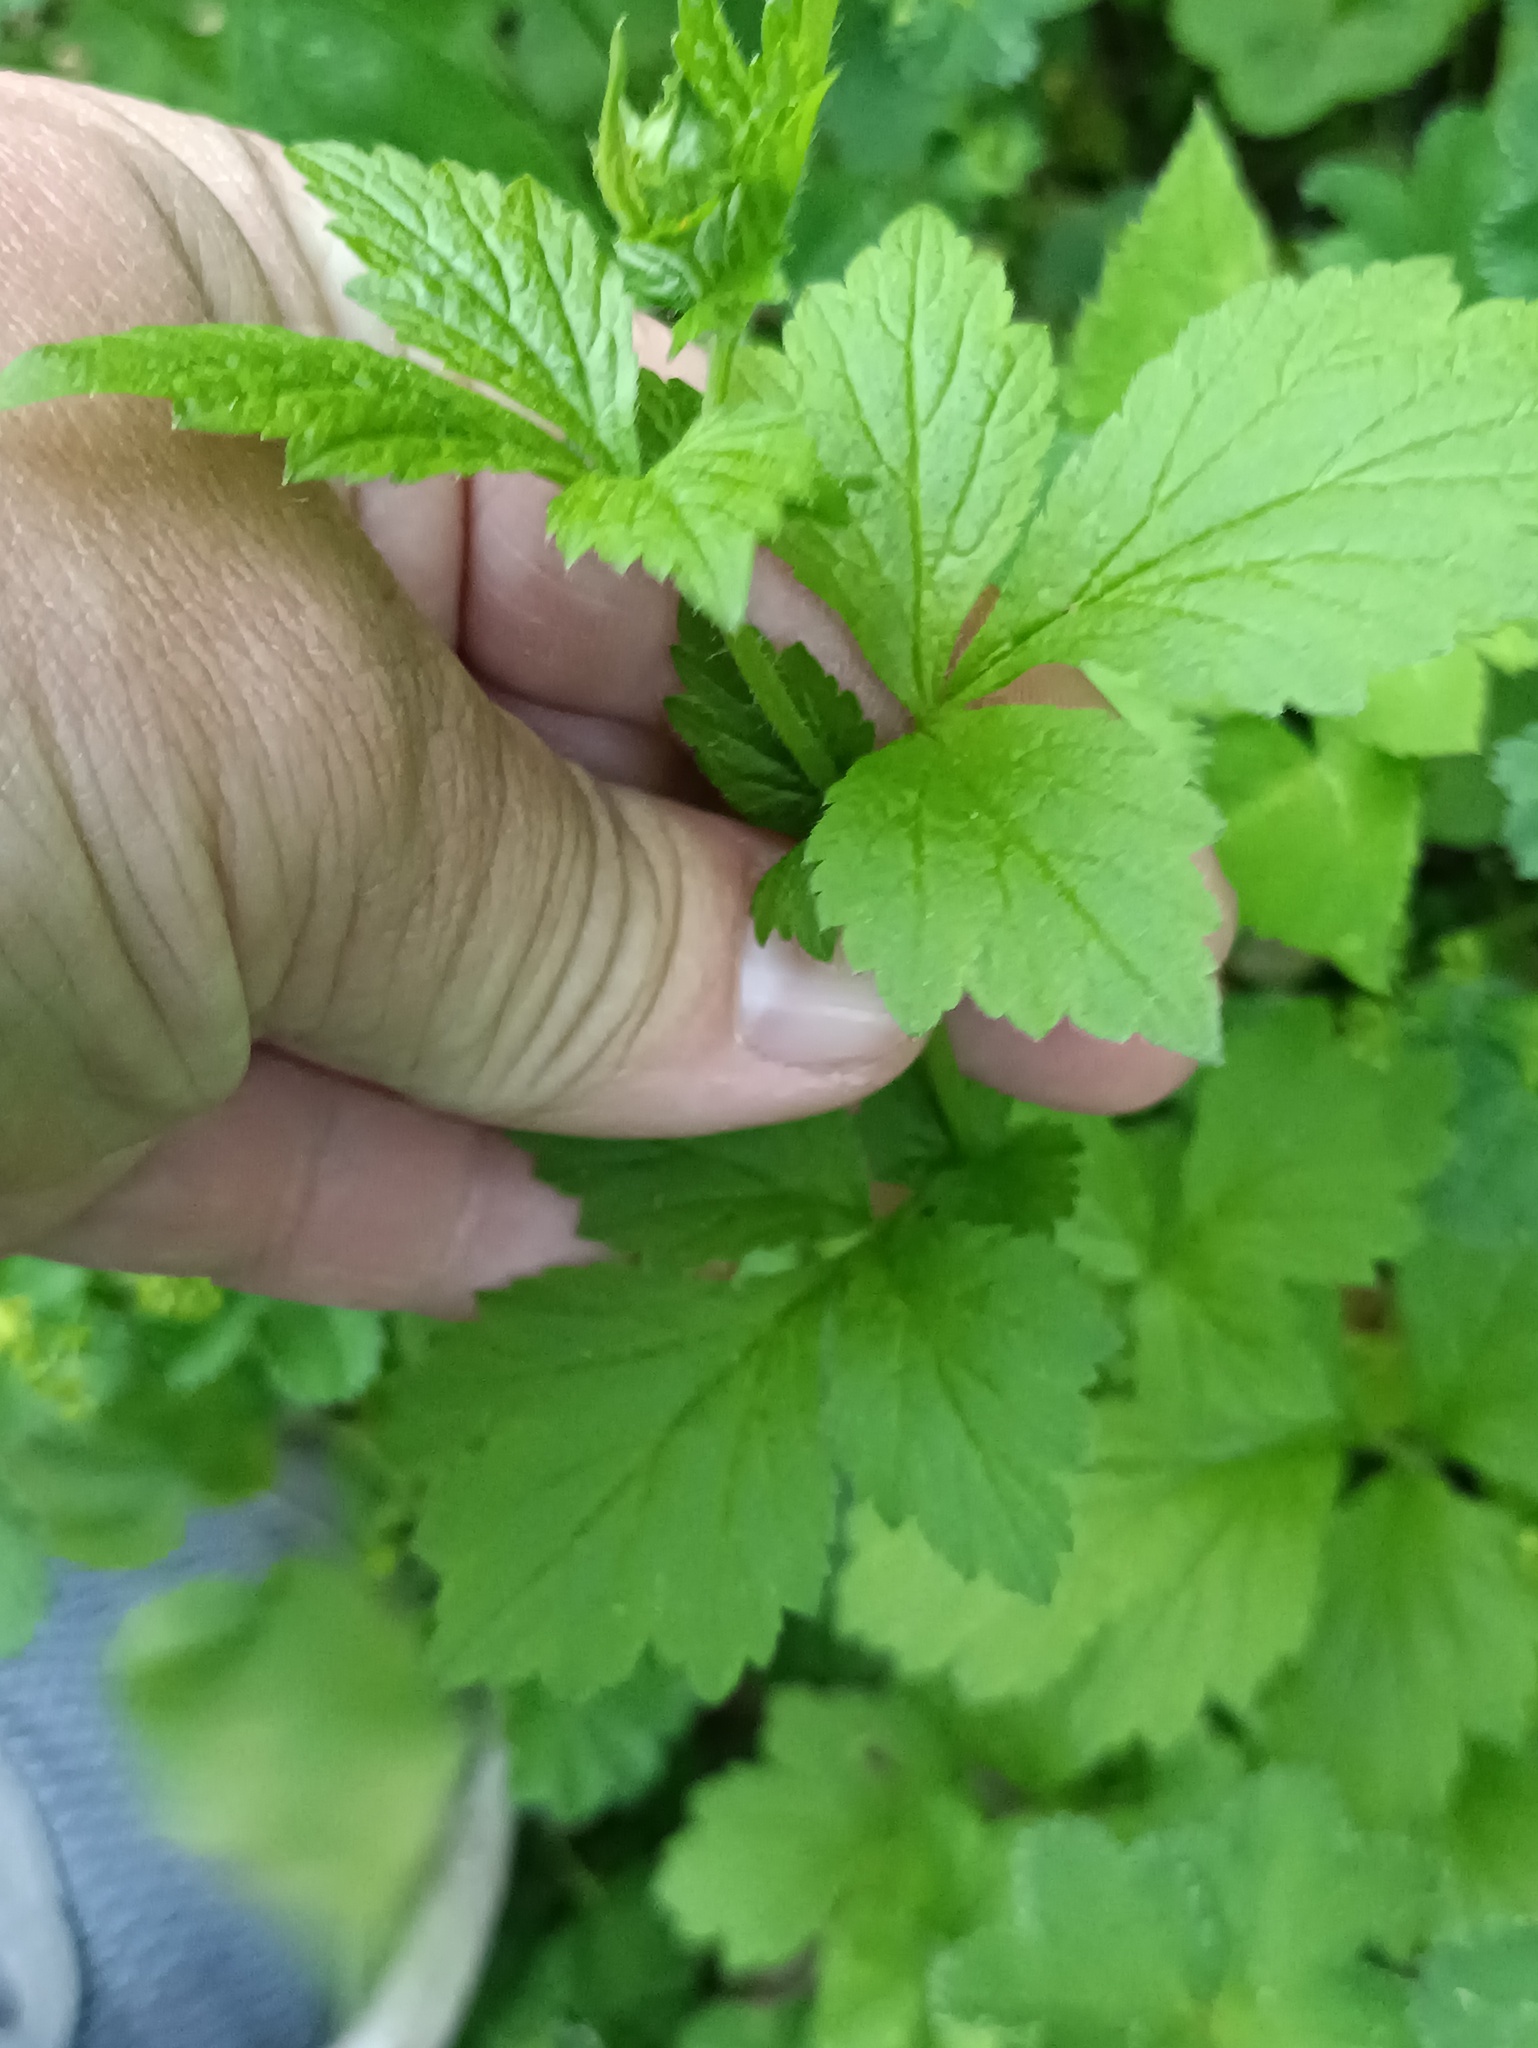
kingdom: Plantae
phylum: Tracheophyta
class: Magnoliopsida
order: Rosales
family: Rosaceae
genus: Geum
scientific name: Geum urbanum
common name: Wood avens
